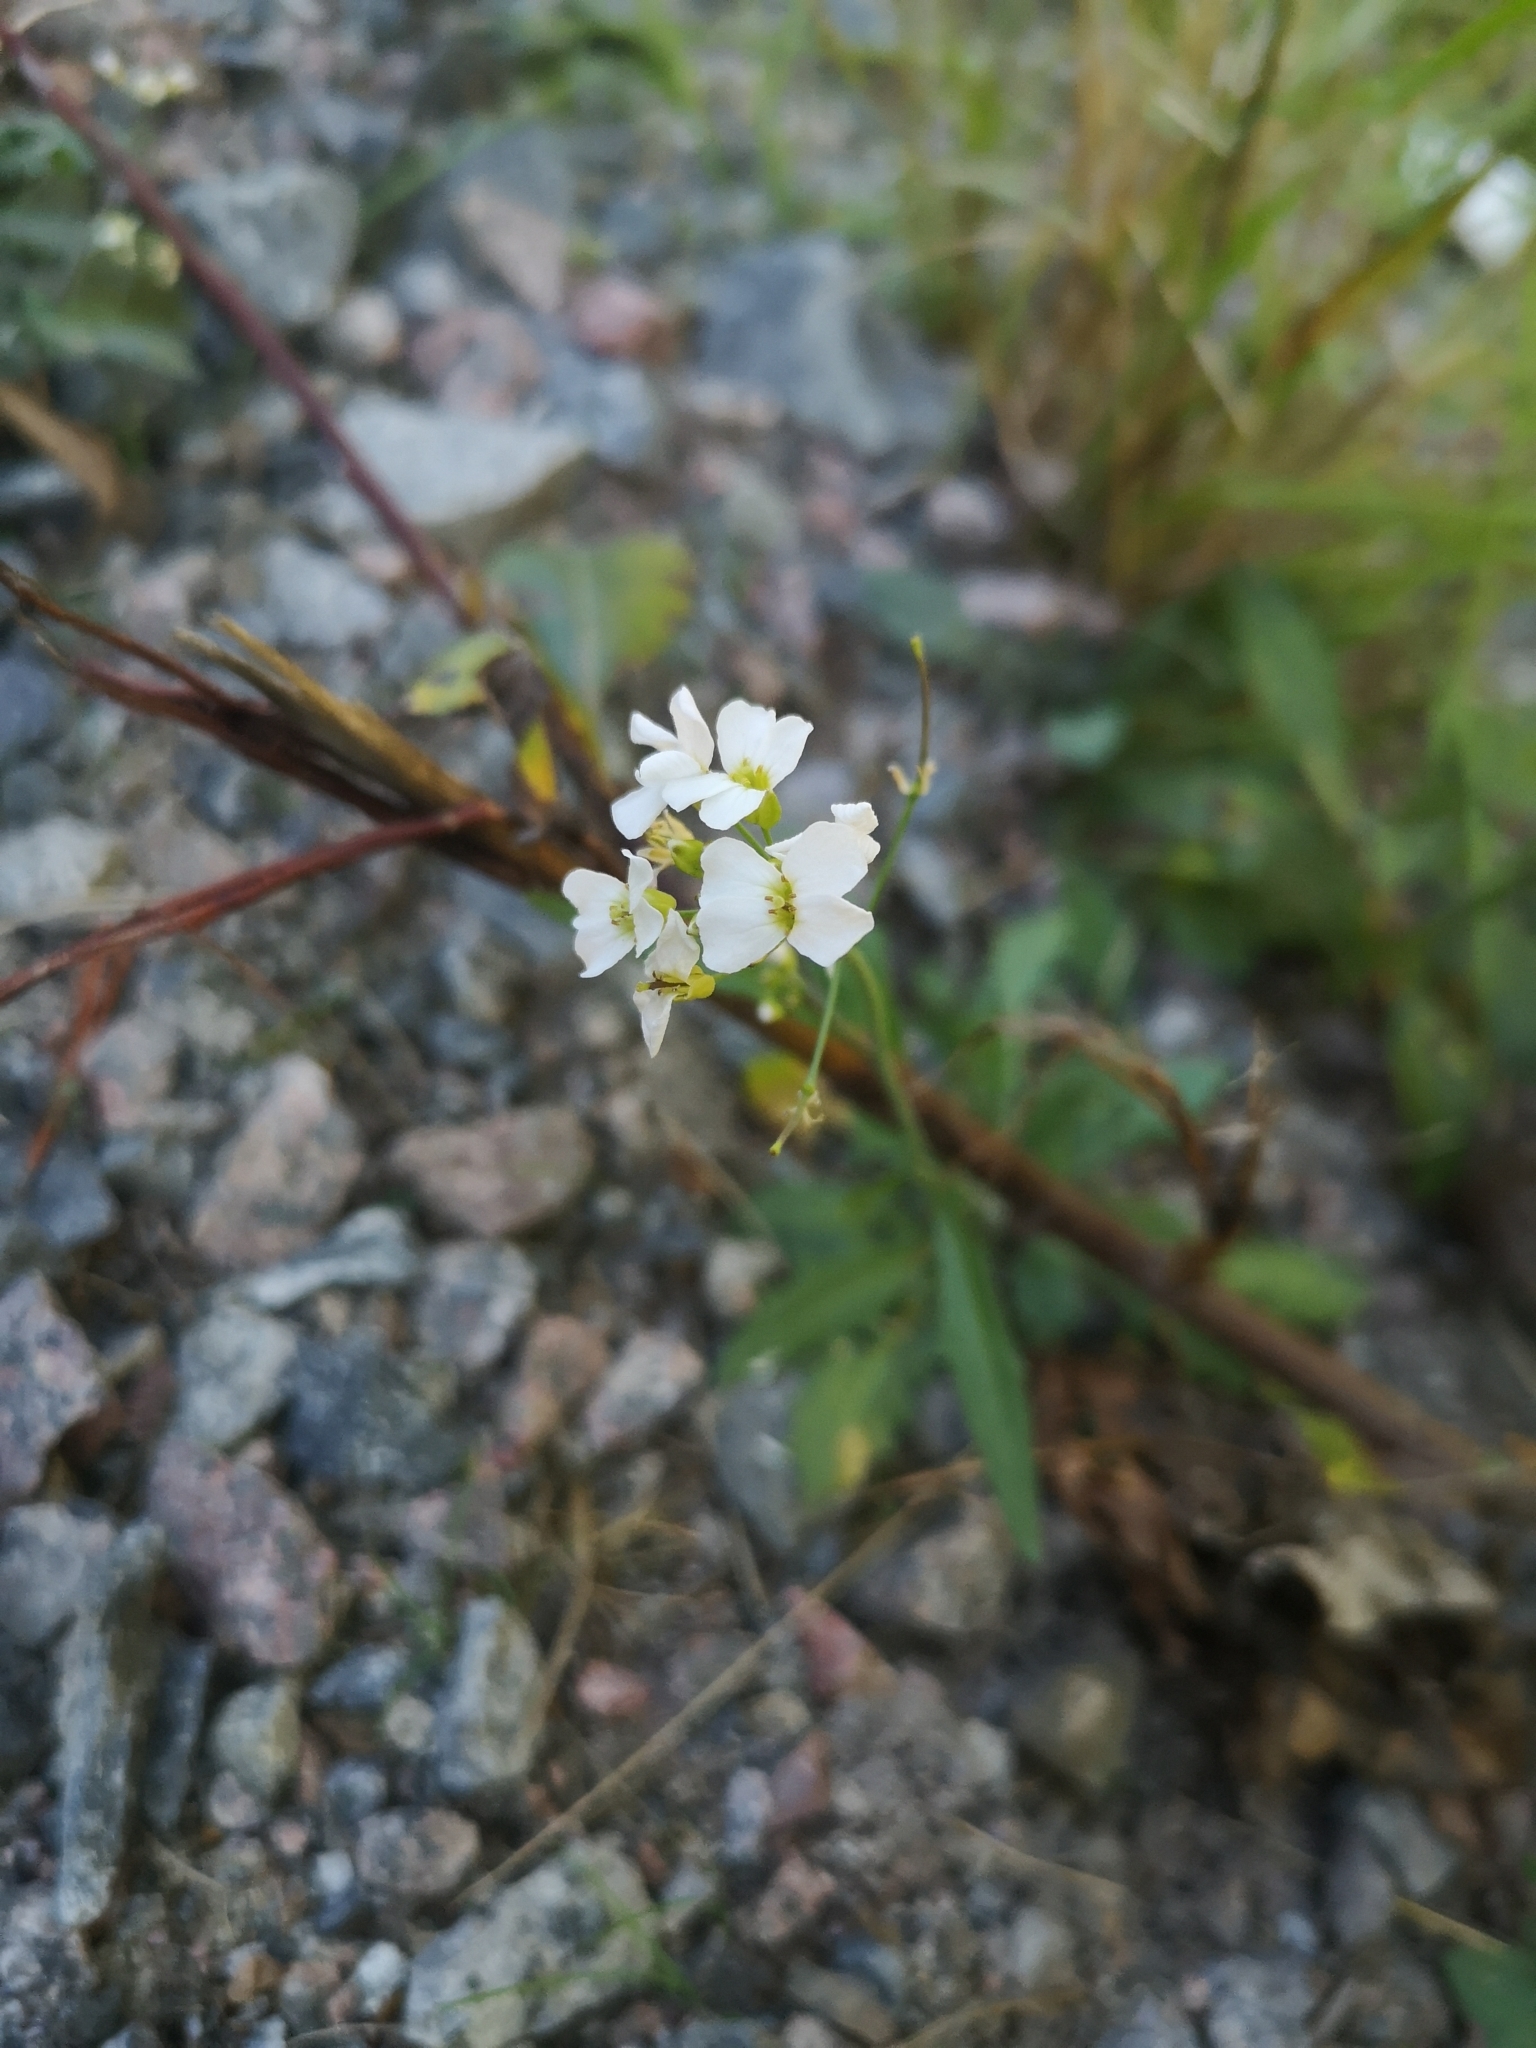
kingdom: Plantae
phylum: Tracheophyta
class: Magnoliopsida
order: Brassicales
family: Brassicaceae
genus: Arabidopsis
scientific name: Arabidopsis arenosa
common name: Sand rock-cress
